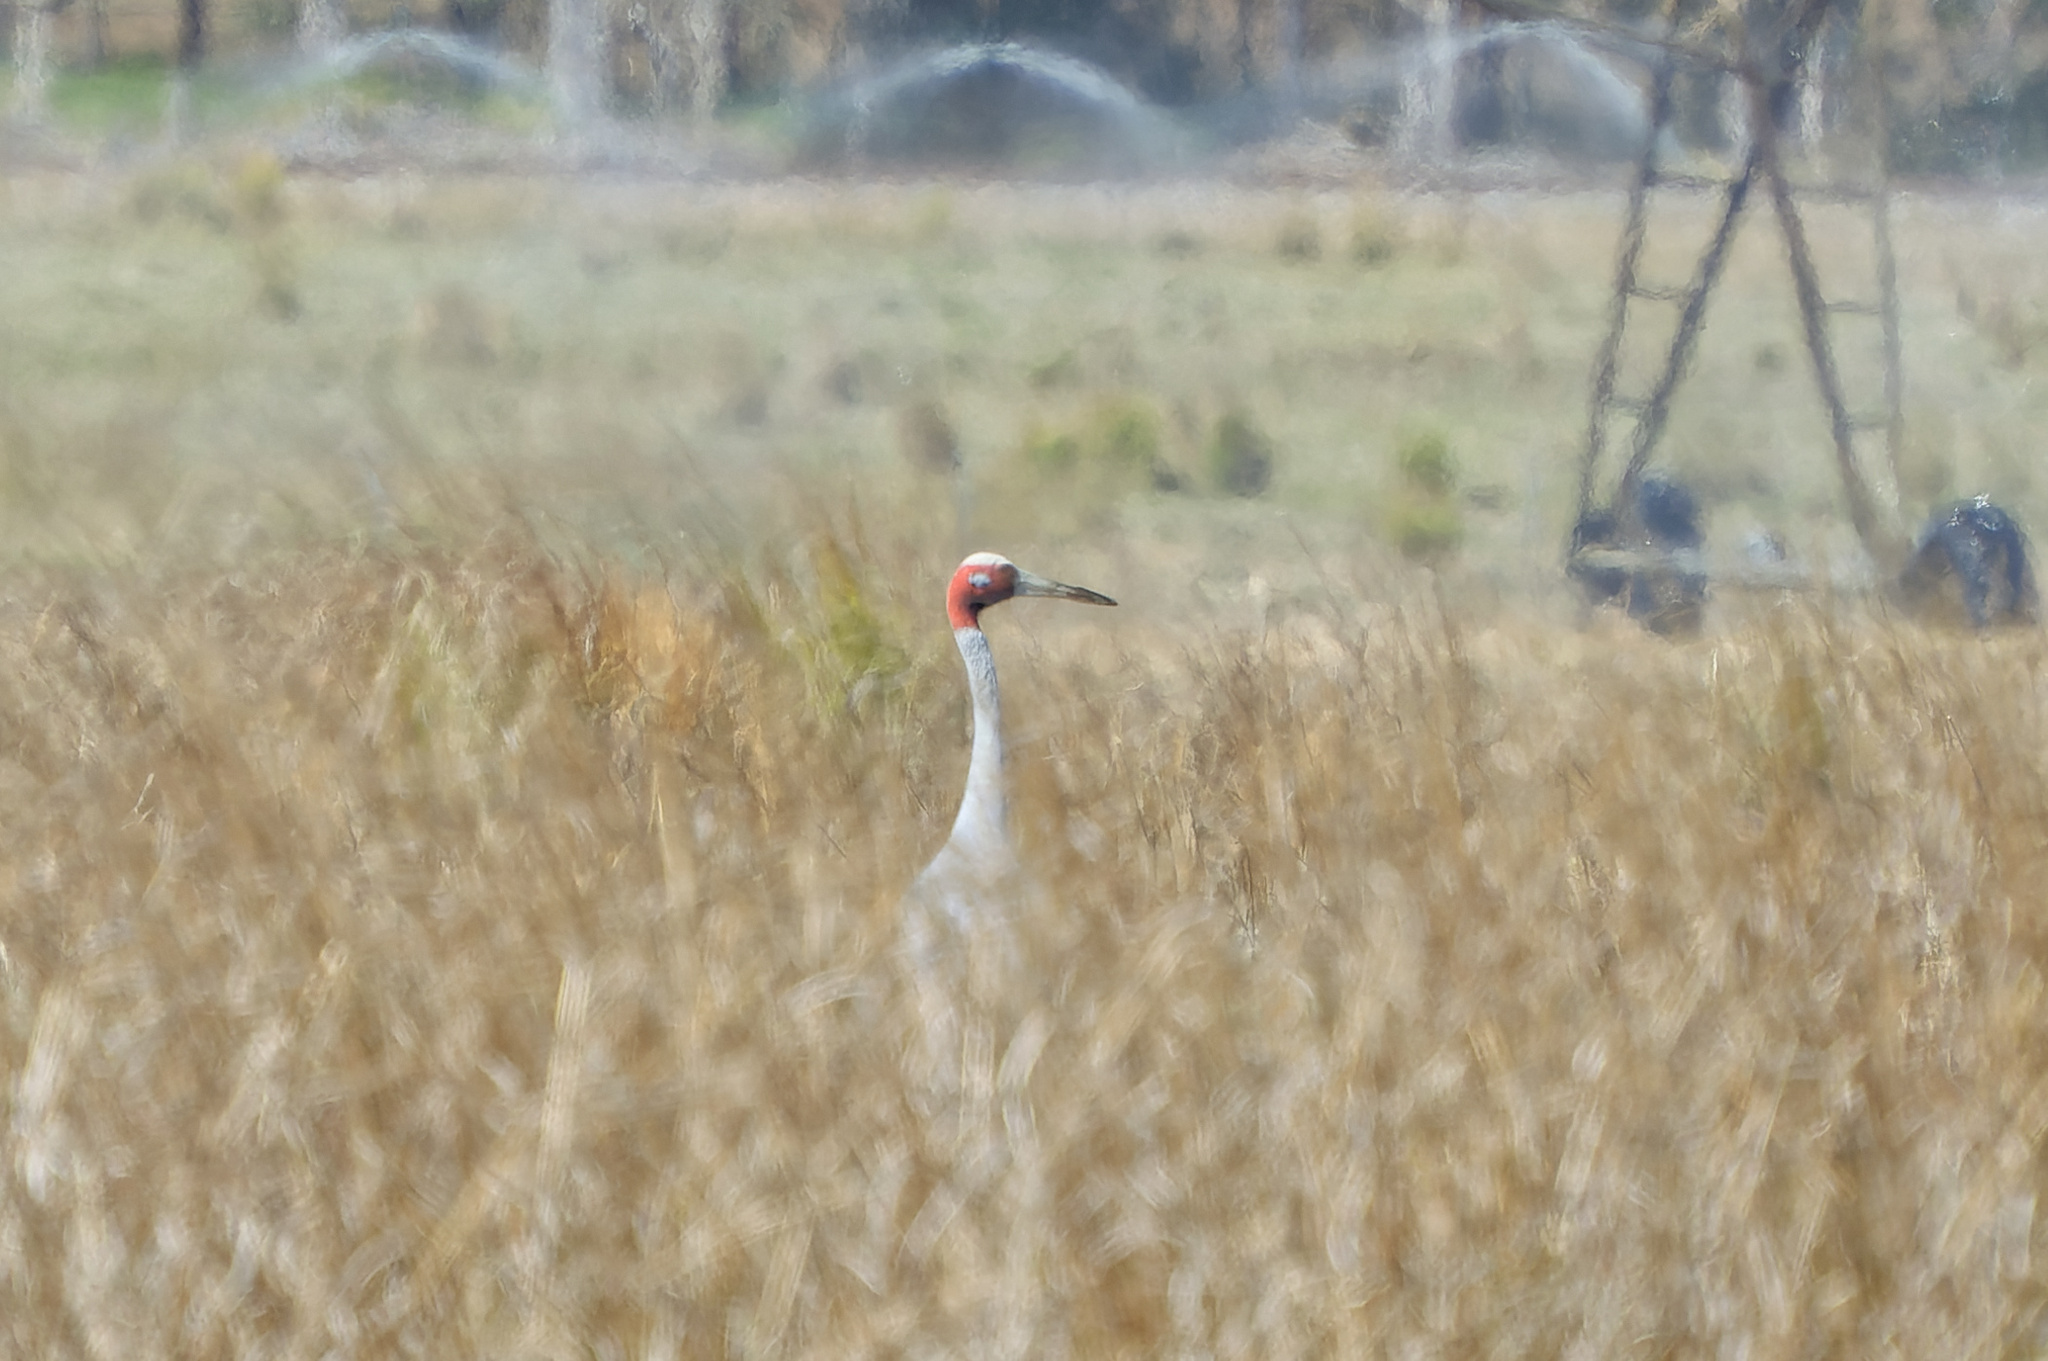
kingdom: Animalia
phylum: Chordata
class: Aves
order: Gruiformes
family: Gruidae
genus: Grus
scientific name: Grus antigone
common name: Sarus crane
